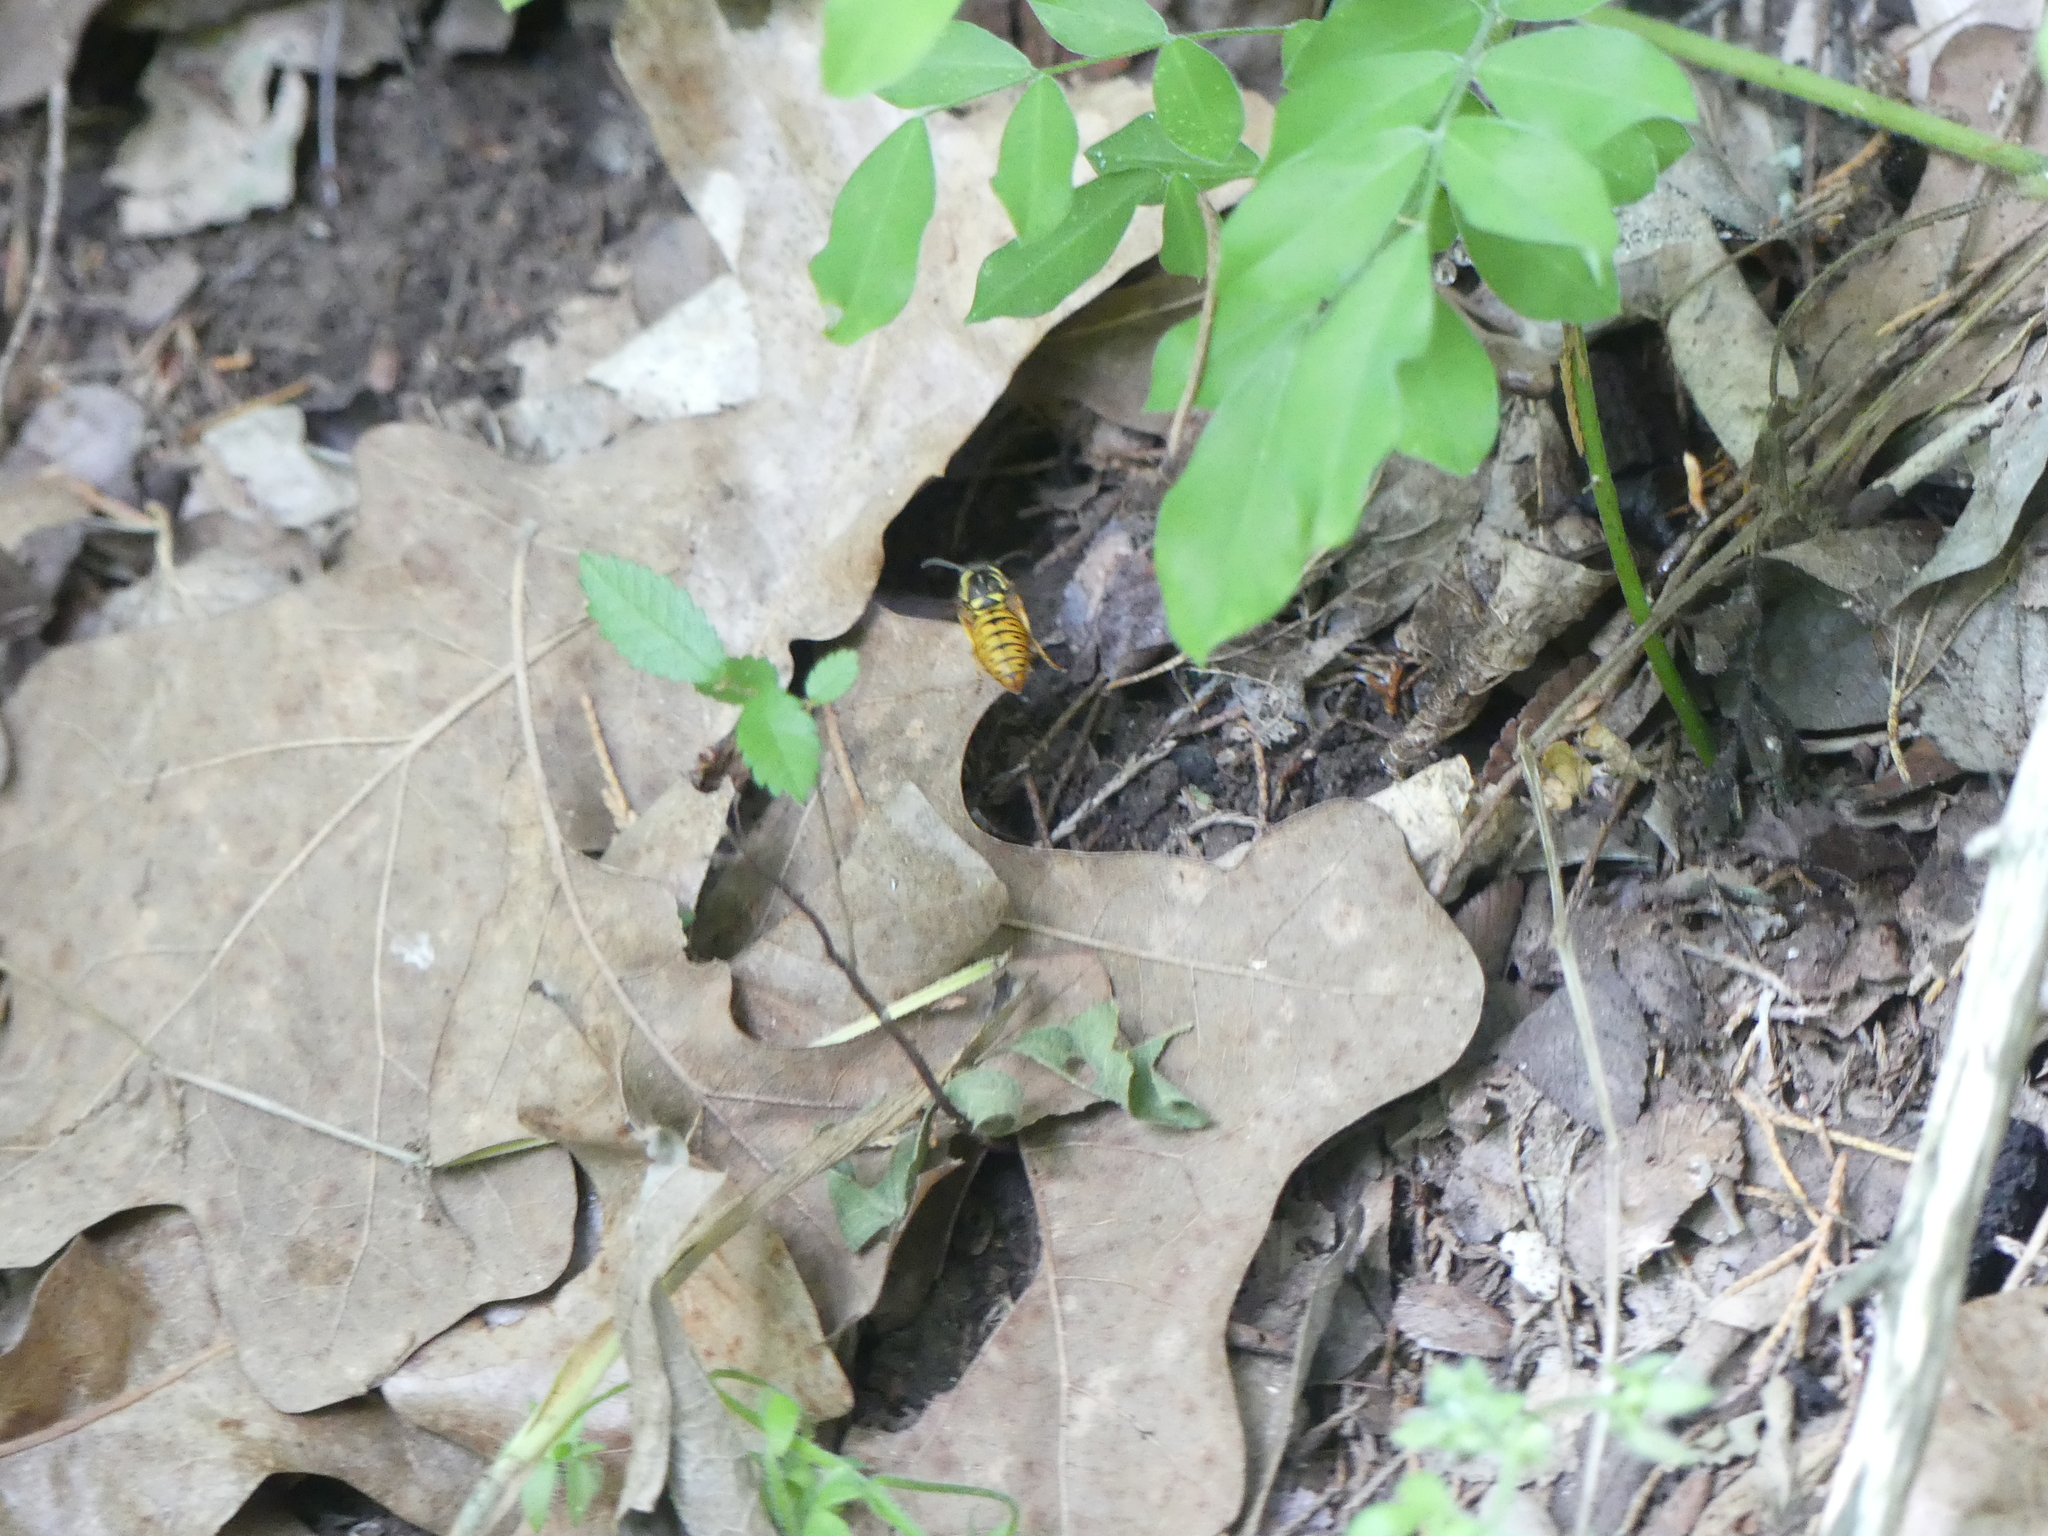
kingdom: Animalia
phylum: Arthropoda
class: Insecta
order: Hymenoptera
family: Vespidae
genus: Vespula
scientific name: Vespula maculifrons
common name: Eastern yellowjacket
